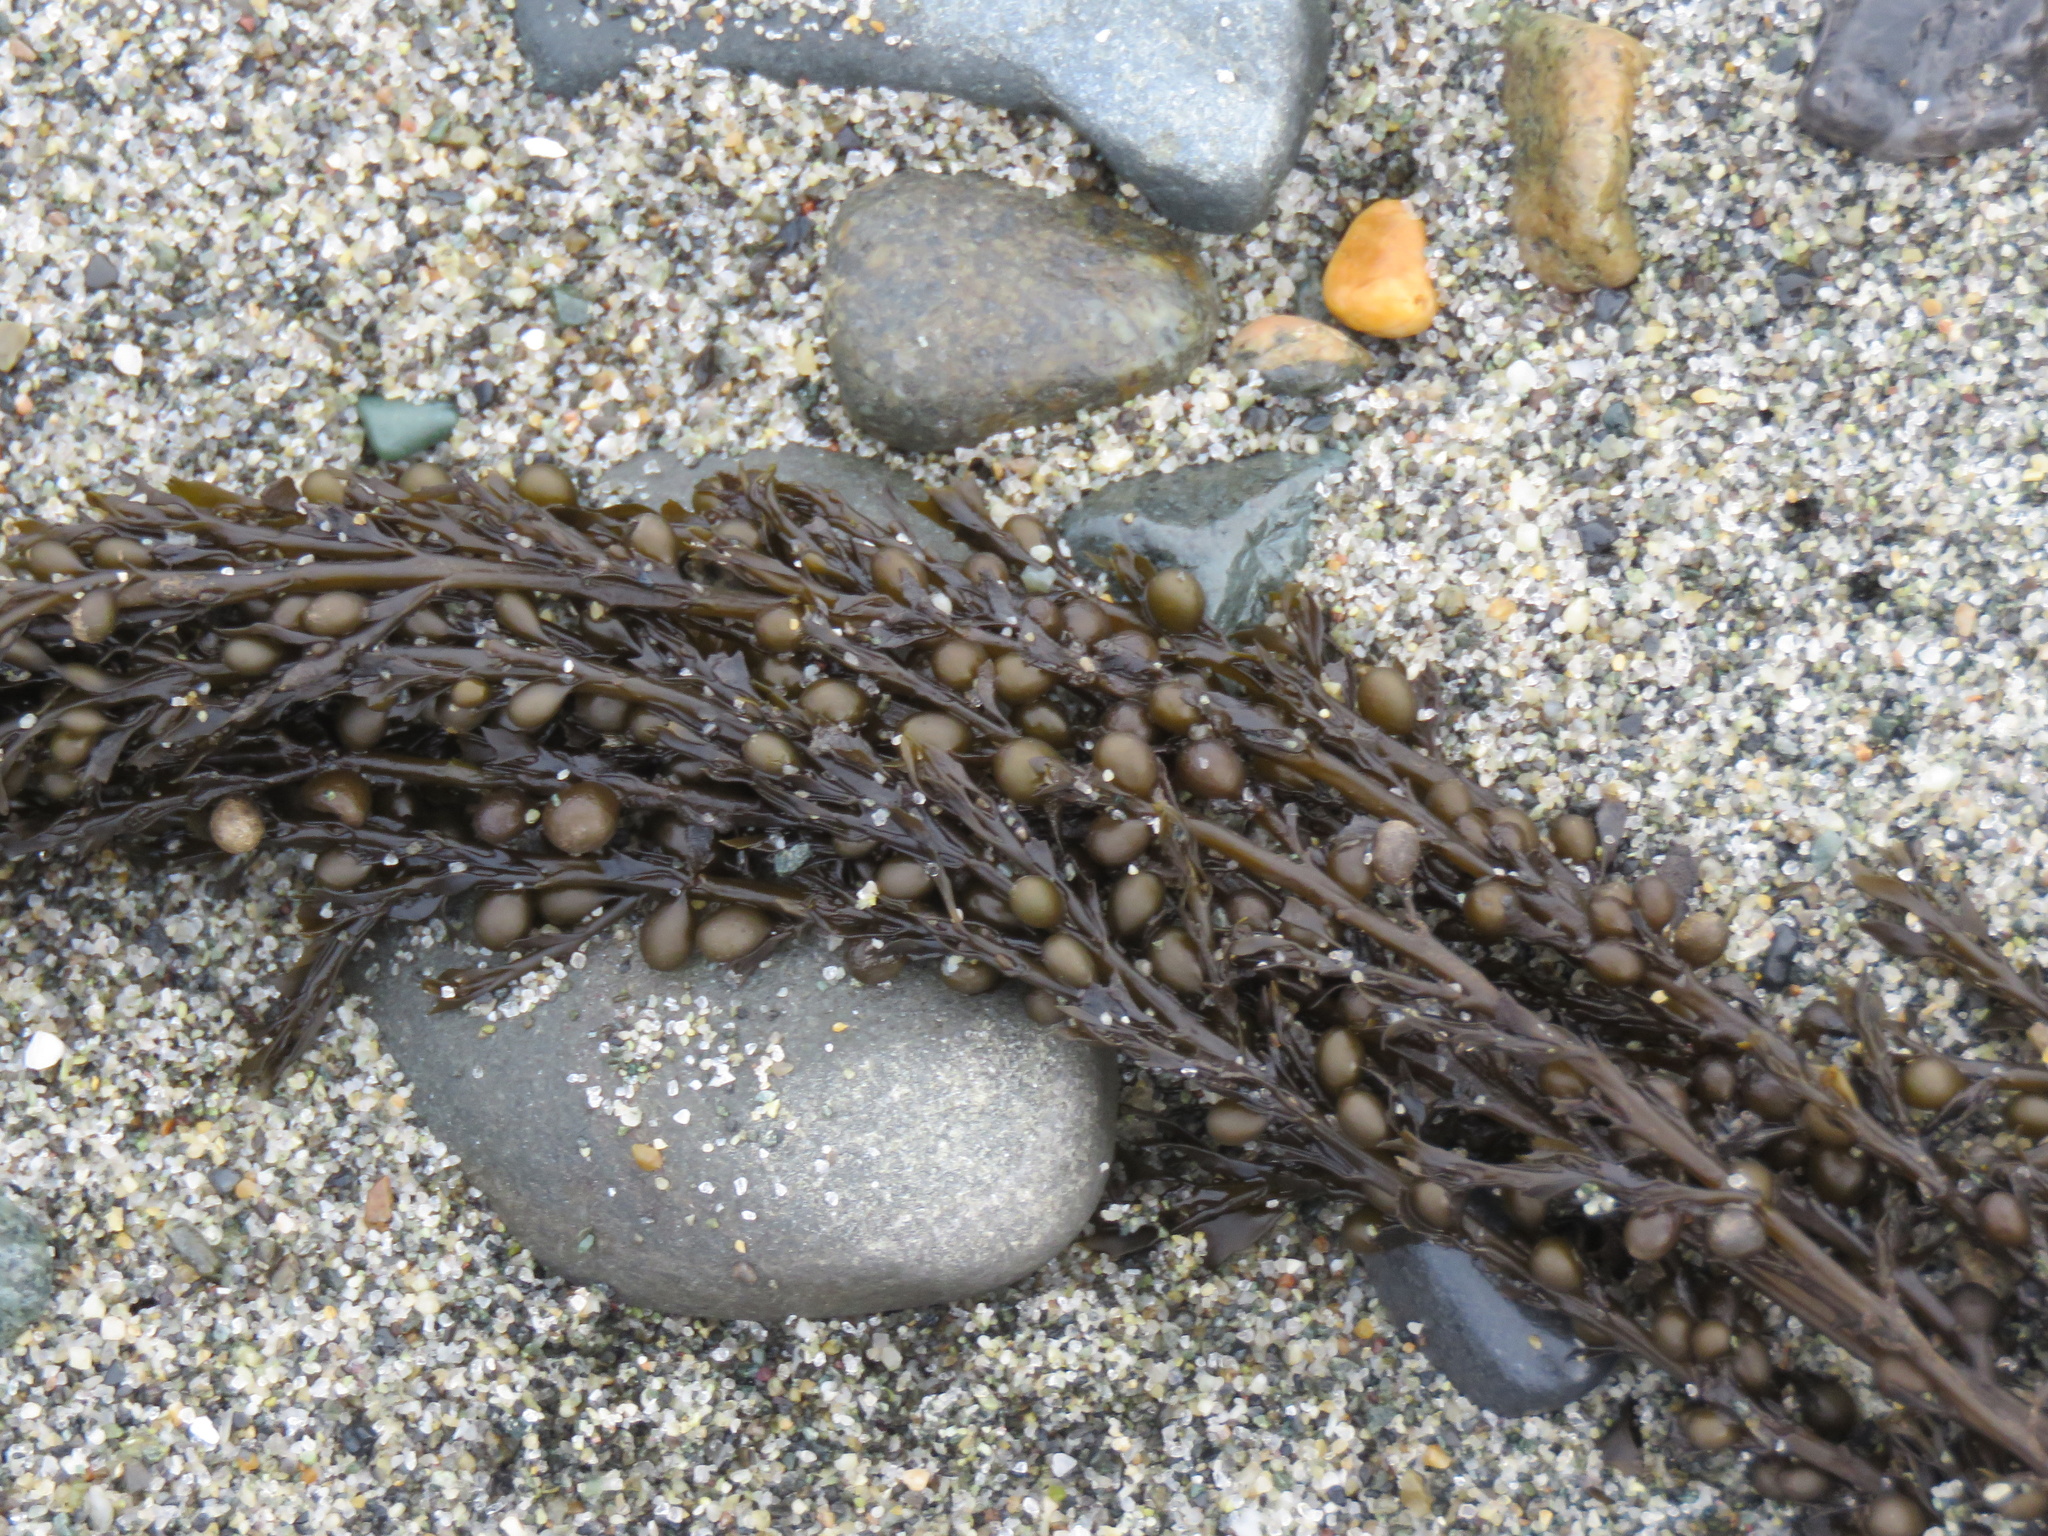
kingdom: Chromista
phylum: Ochrophyta
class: Phaeophyceae
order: Fucales
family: Sargassaceae
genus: Sargassum
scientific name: Sargassum muticum
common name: Japweed
